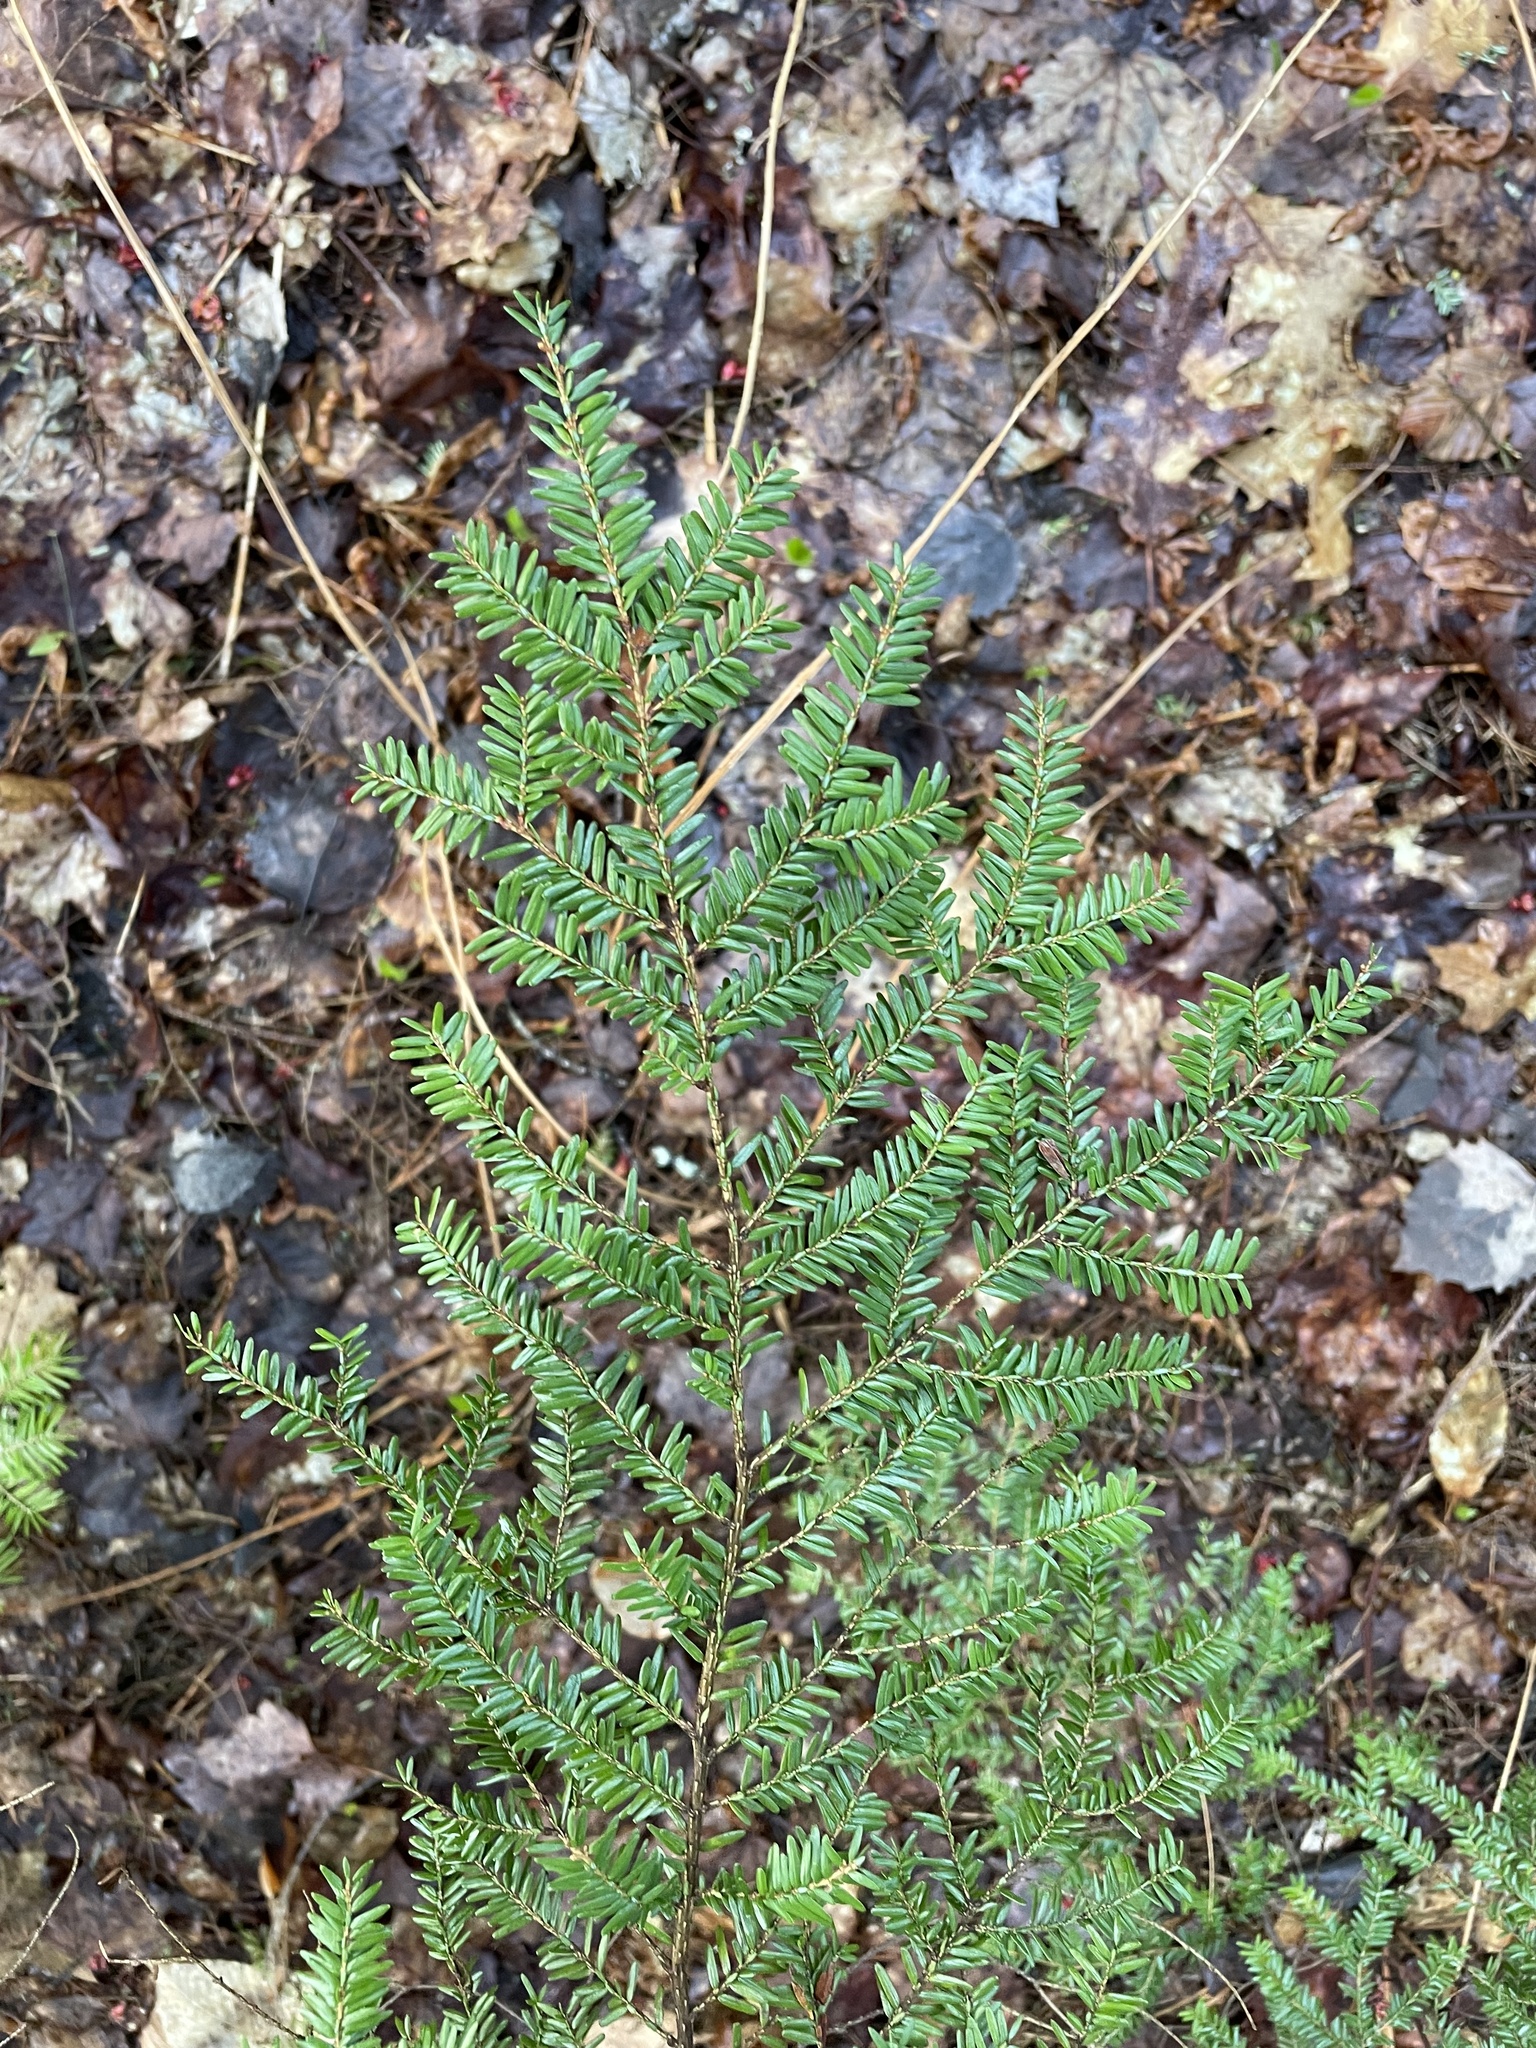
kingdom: Plantae
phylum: Tracheophyta
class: Pinopsida
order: Pinales
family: Pinaceae
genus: Tsuga
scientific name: Tsuga canadensis
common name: Eastern hemlock
